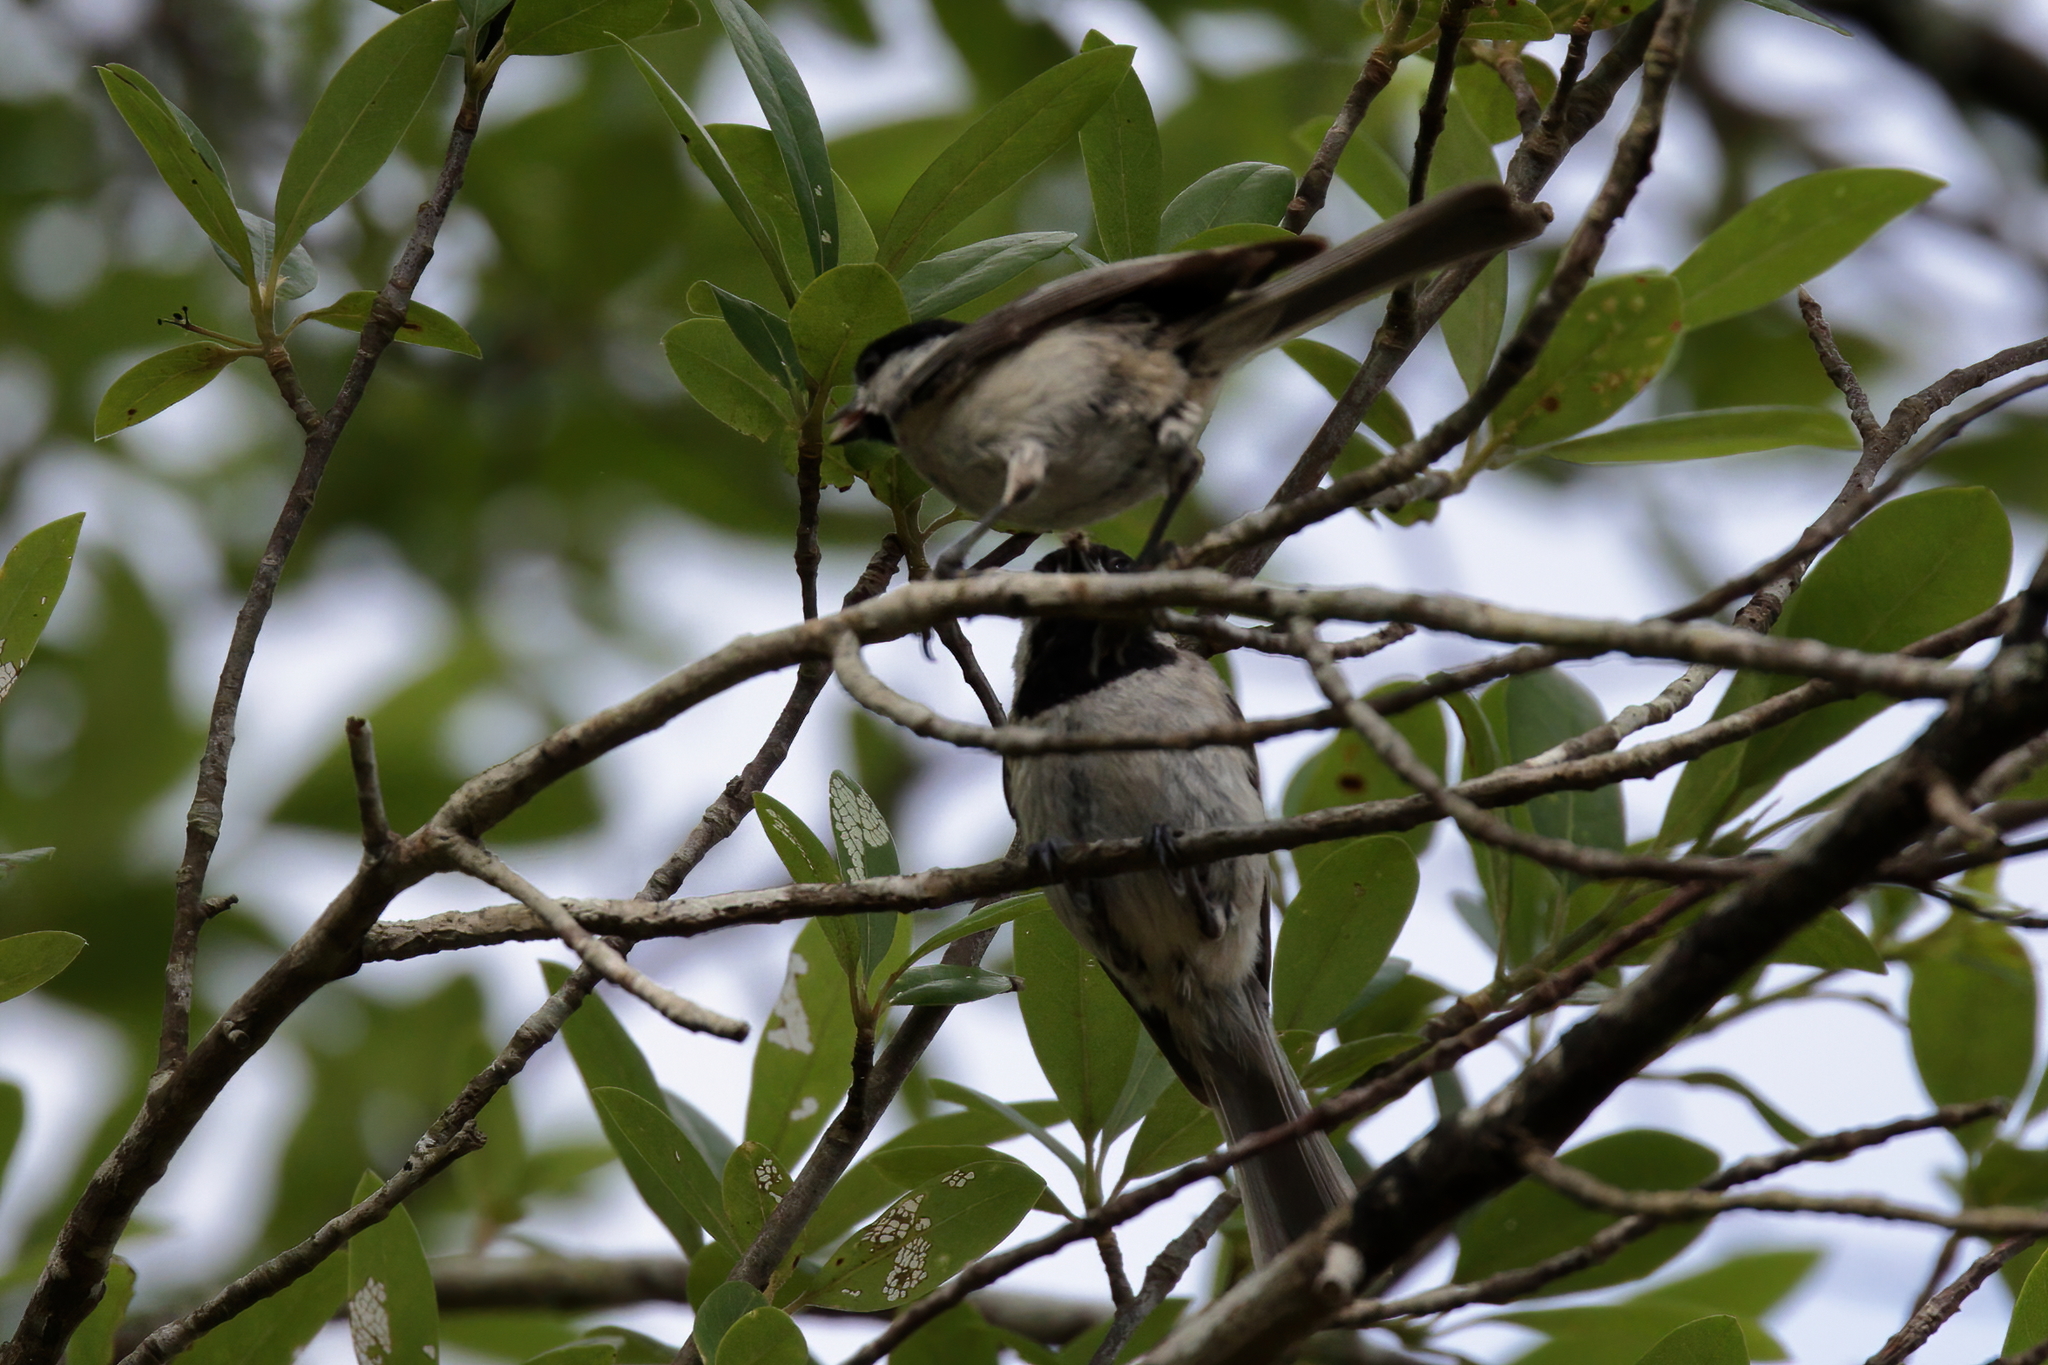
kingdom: Animalia
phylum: Chordata
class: Aves
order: Passeriformes
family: Paridae
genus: Poecile
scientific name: Poecile carolinensis
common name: Carolina chickadee
